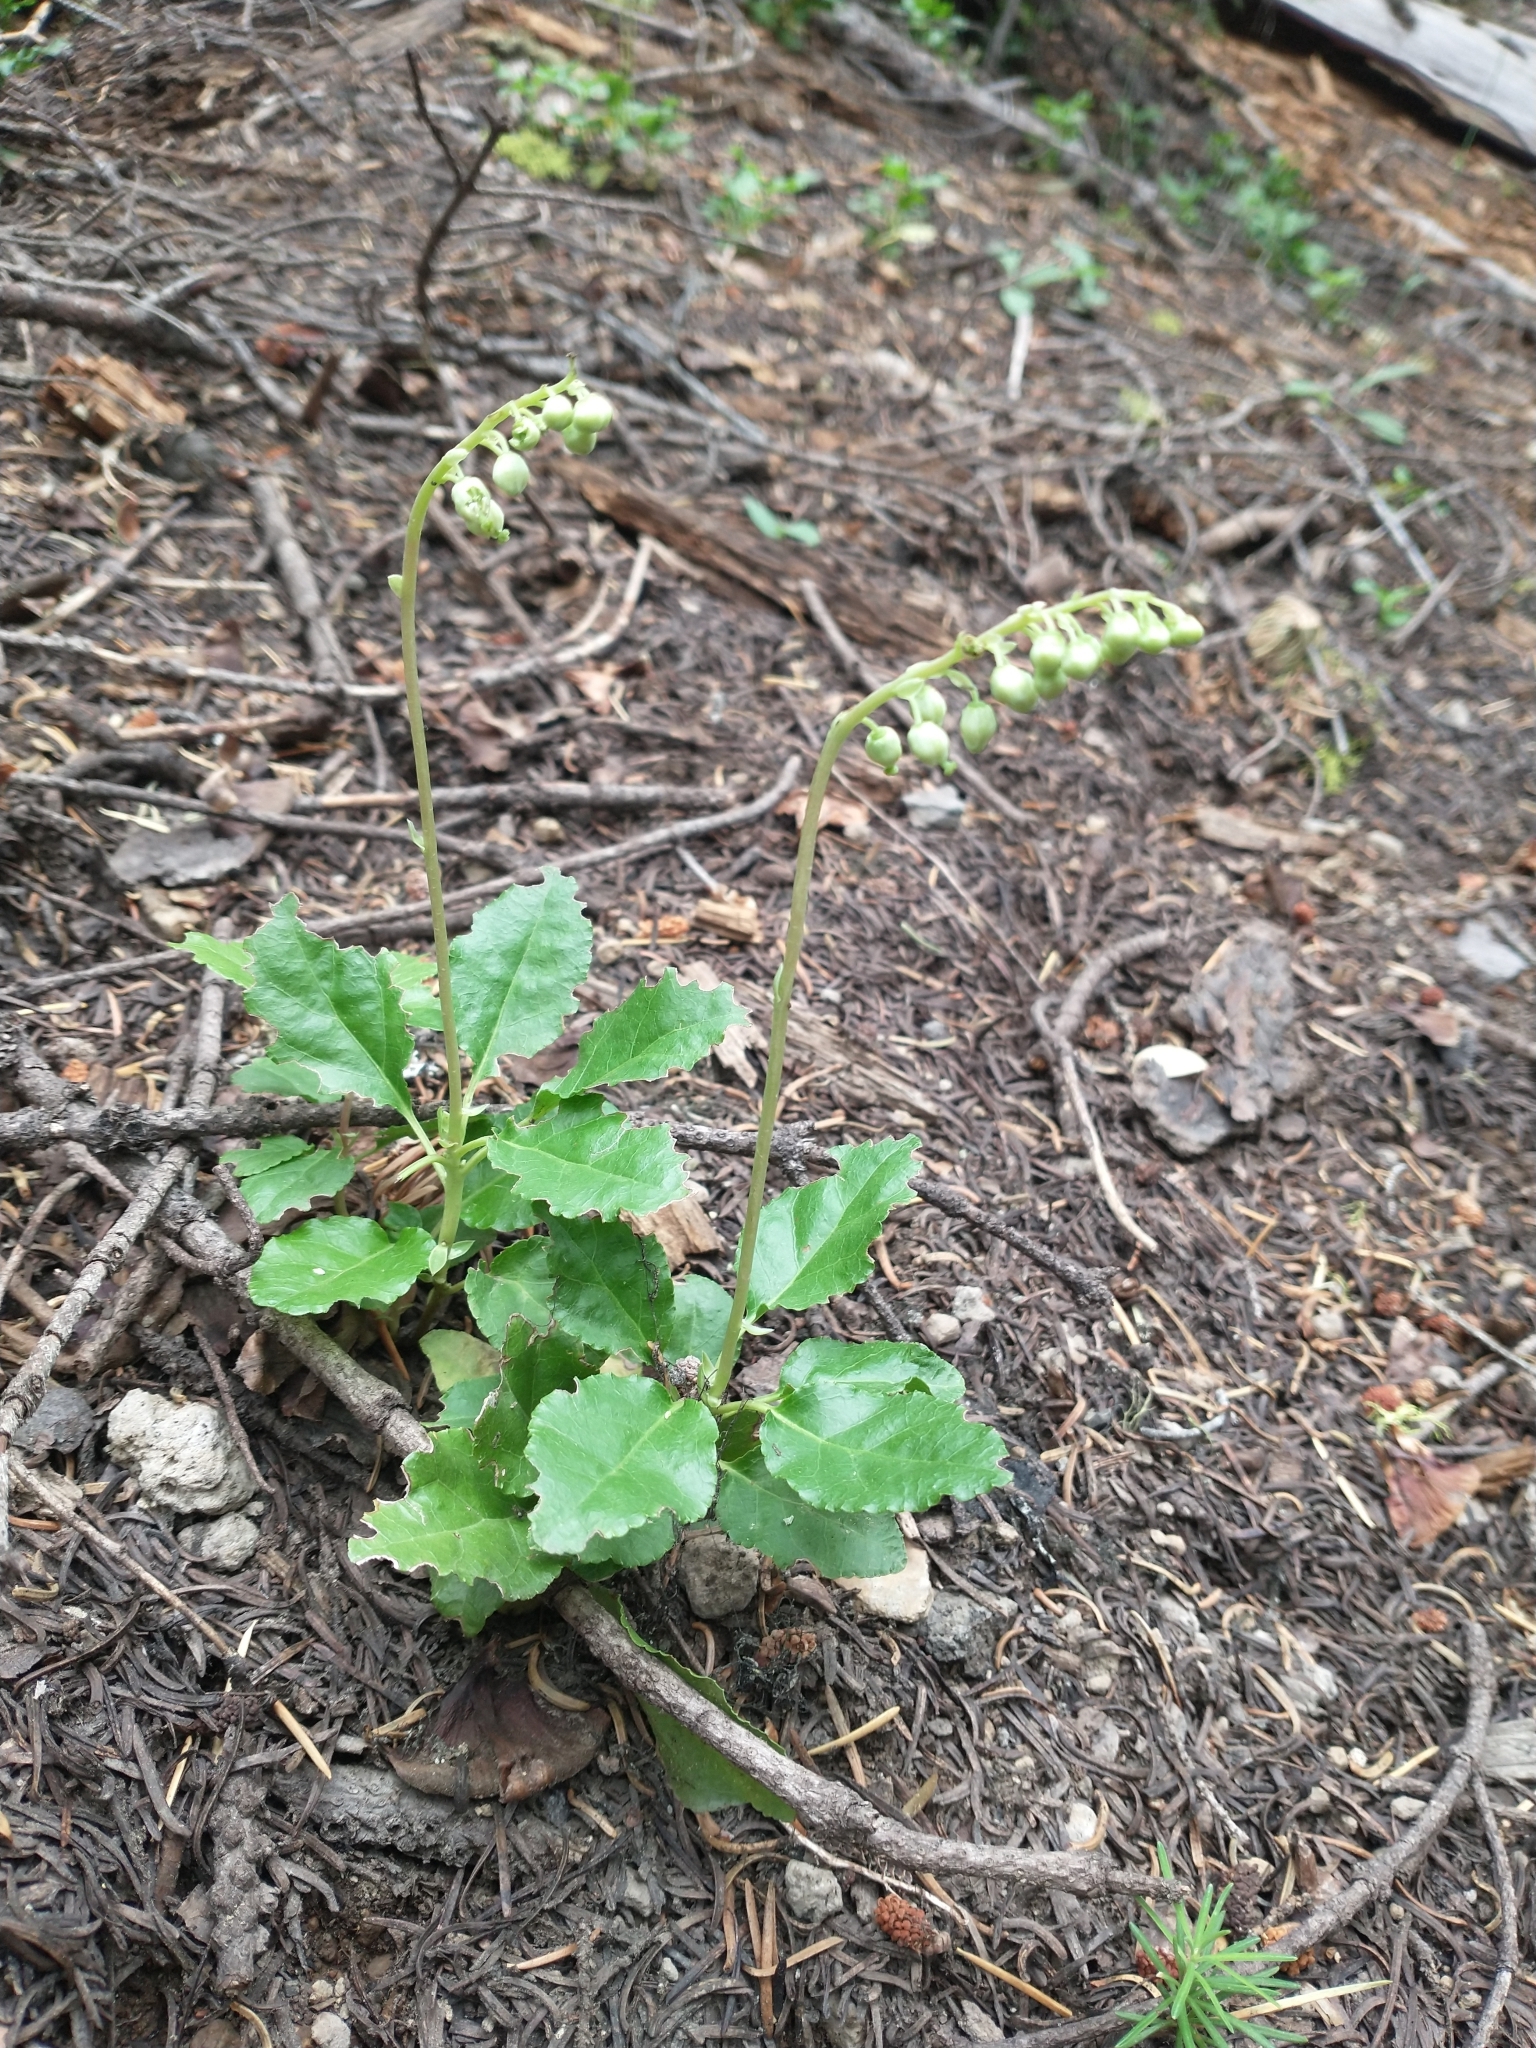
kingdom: Plantae
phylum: Tracheophyta
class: Magnoliopsida
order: Ericales
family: Ericaceae
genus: Orthilia
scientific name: Orthilia secunda
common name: One-sided orthilia
